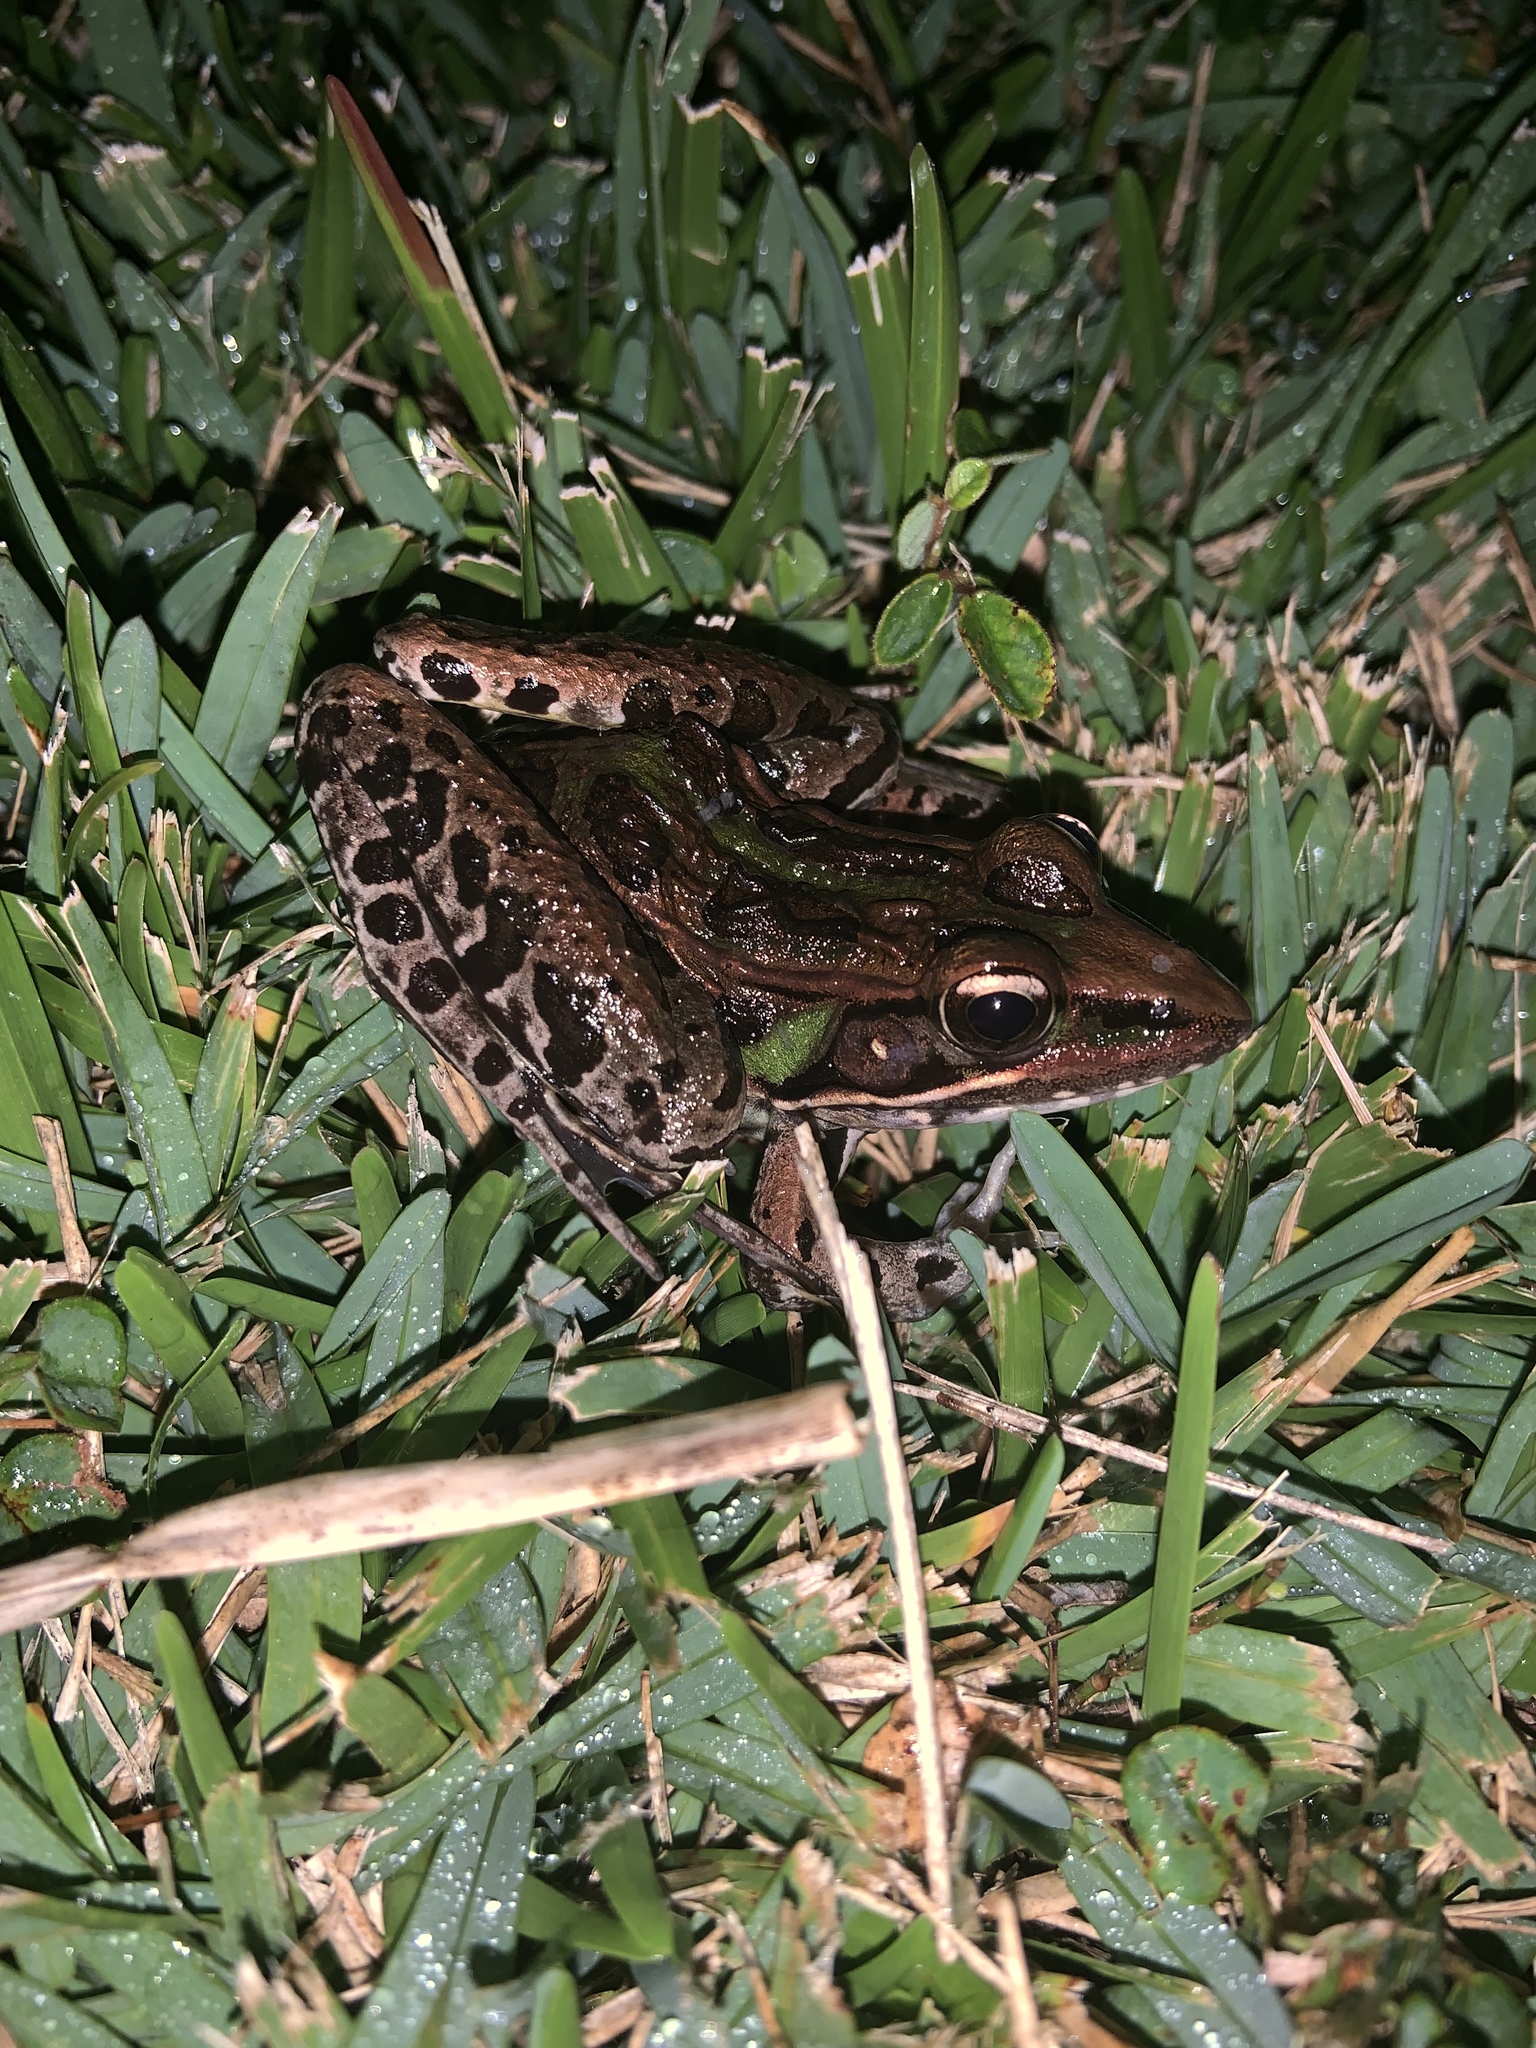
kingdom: Animalia
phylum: Chordata
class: Amphibia
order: Anura
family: Ranidae
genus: Lithobates
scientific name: Lithobates sphenocephalus
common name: Southern leopard frog
